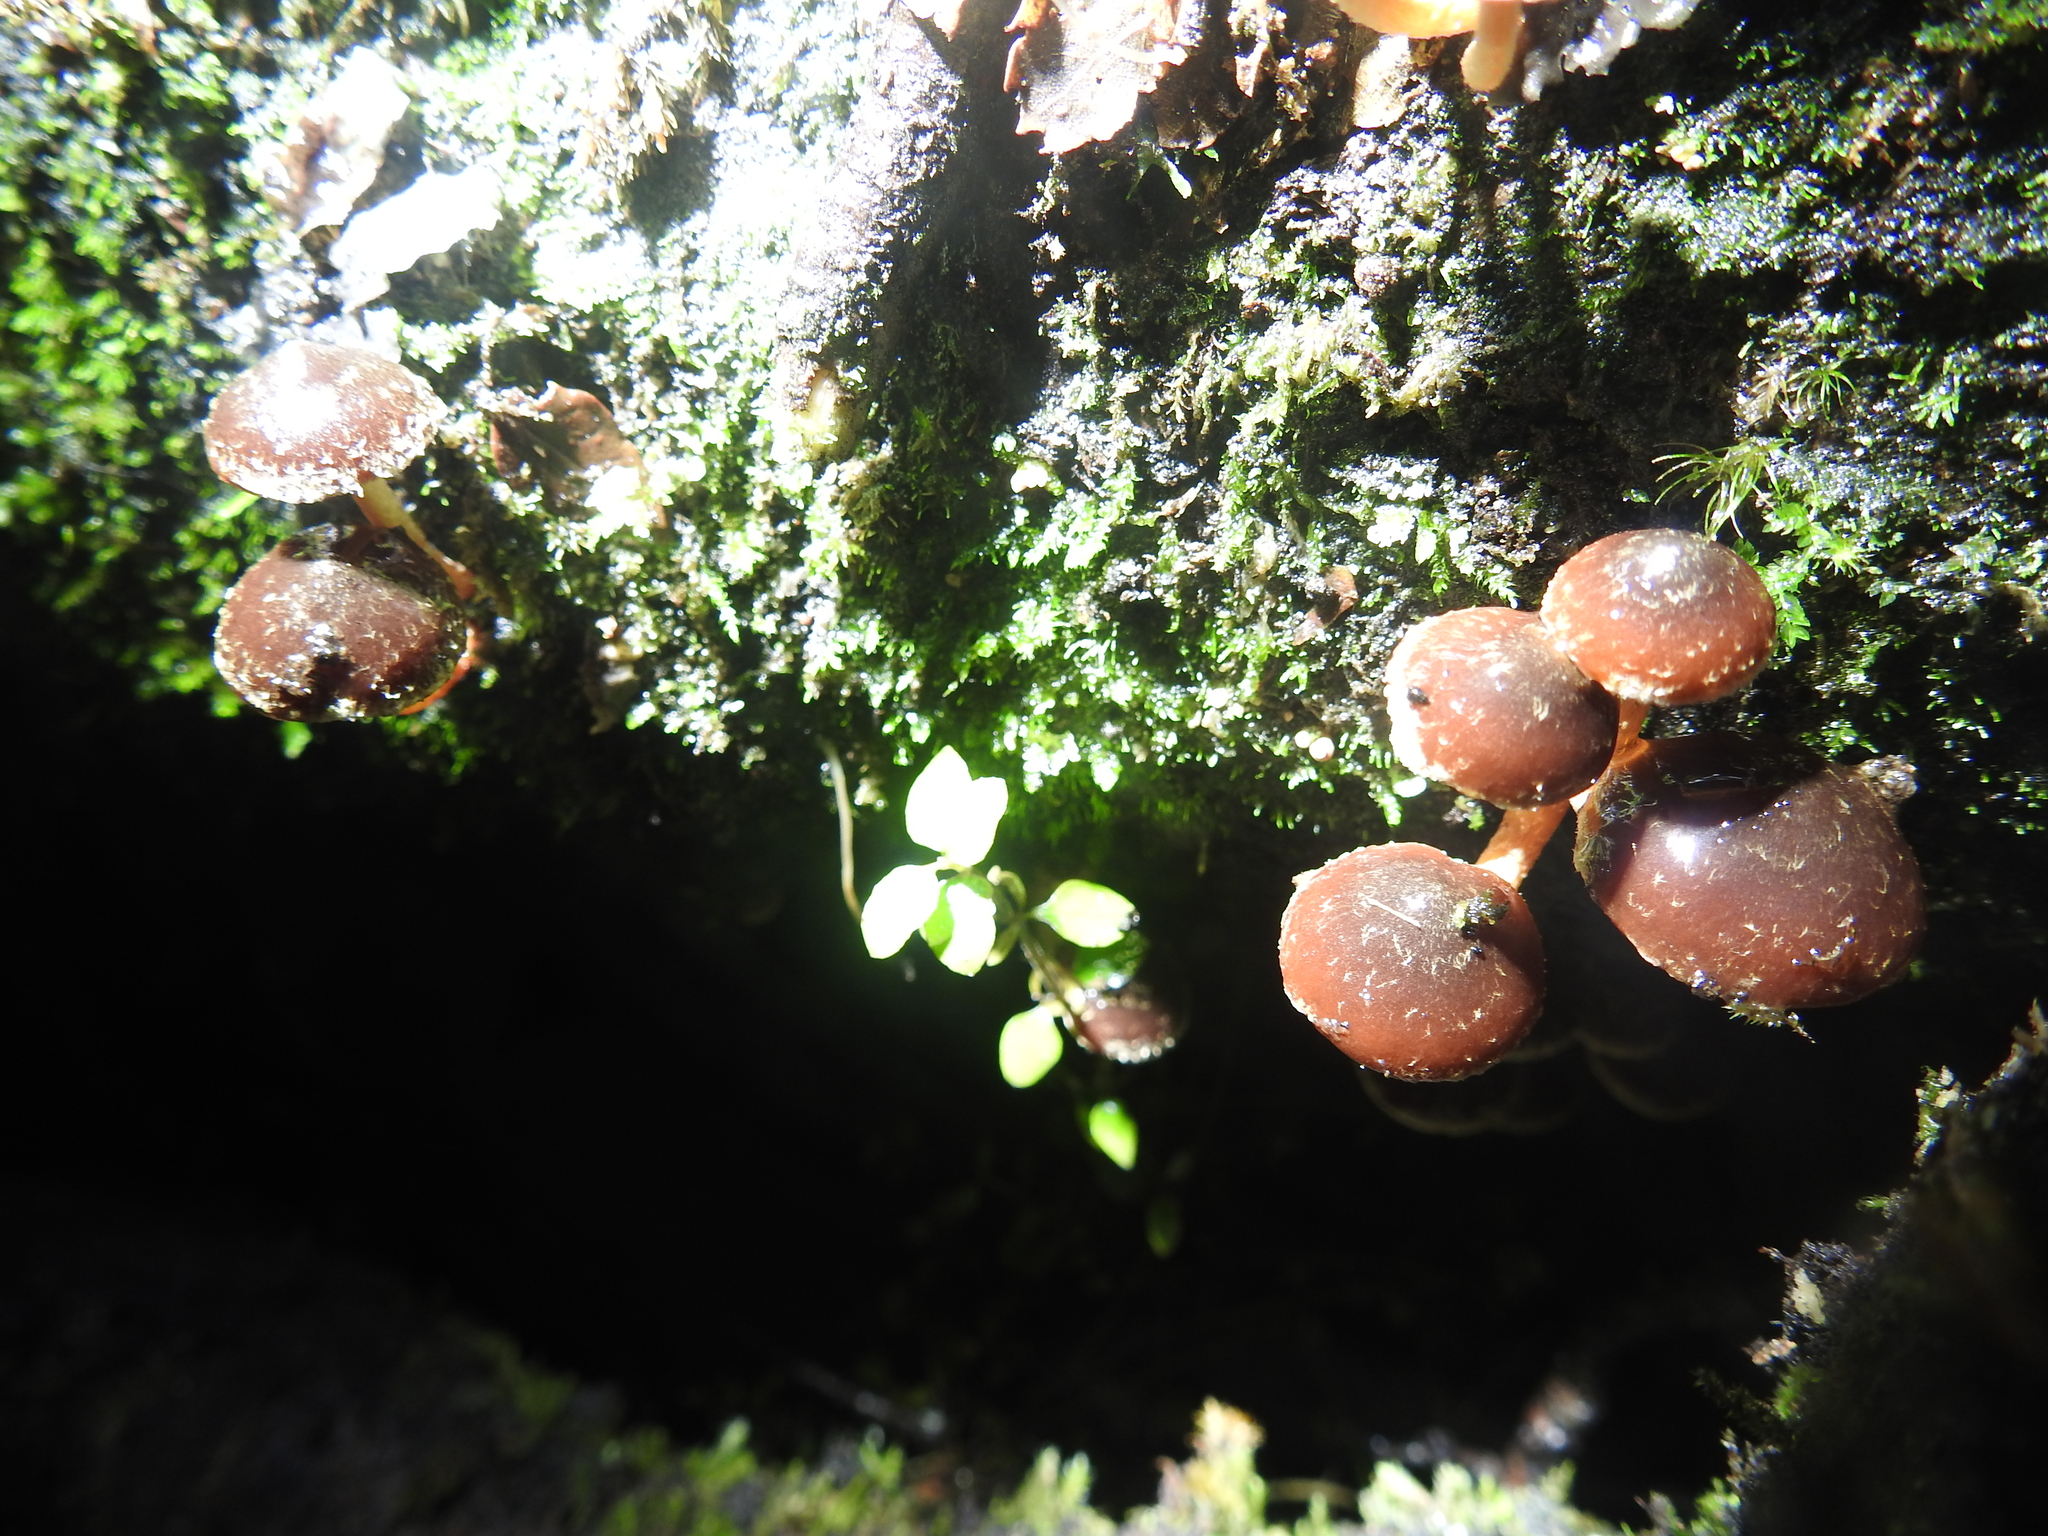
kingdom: Fungi
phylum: Basidiomycota
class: Agaricomycetes
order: Agaricales
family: Strophariaceae
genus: Hypholoma
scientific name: Hypholoma brunneum
